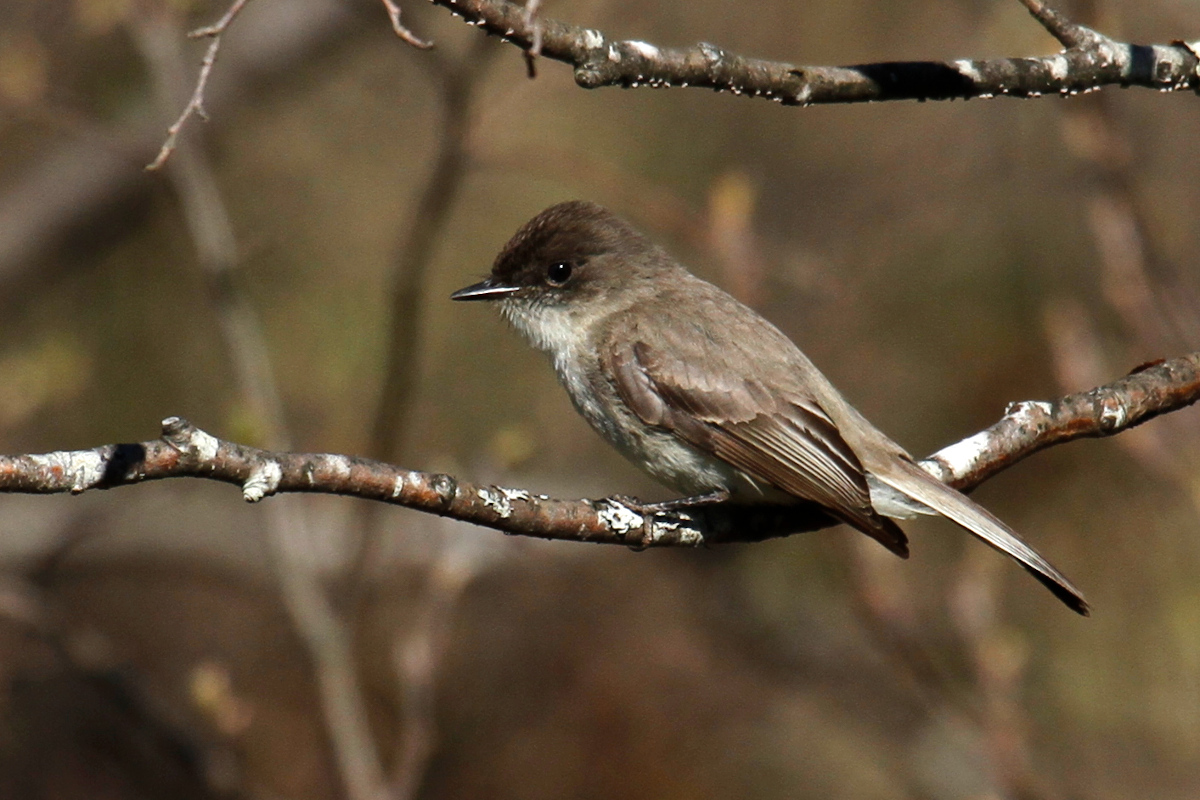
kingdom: Animalia
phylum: Chordata
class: Aves
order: Passeriformes
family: Tyrannidae
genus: Sayornis
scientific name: Sayornis phoebe
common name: Eastern phoebe
